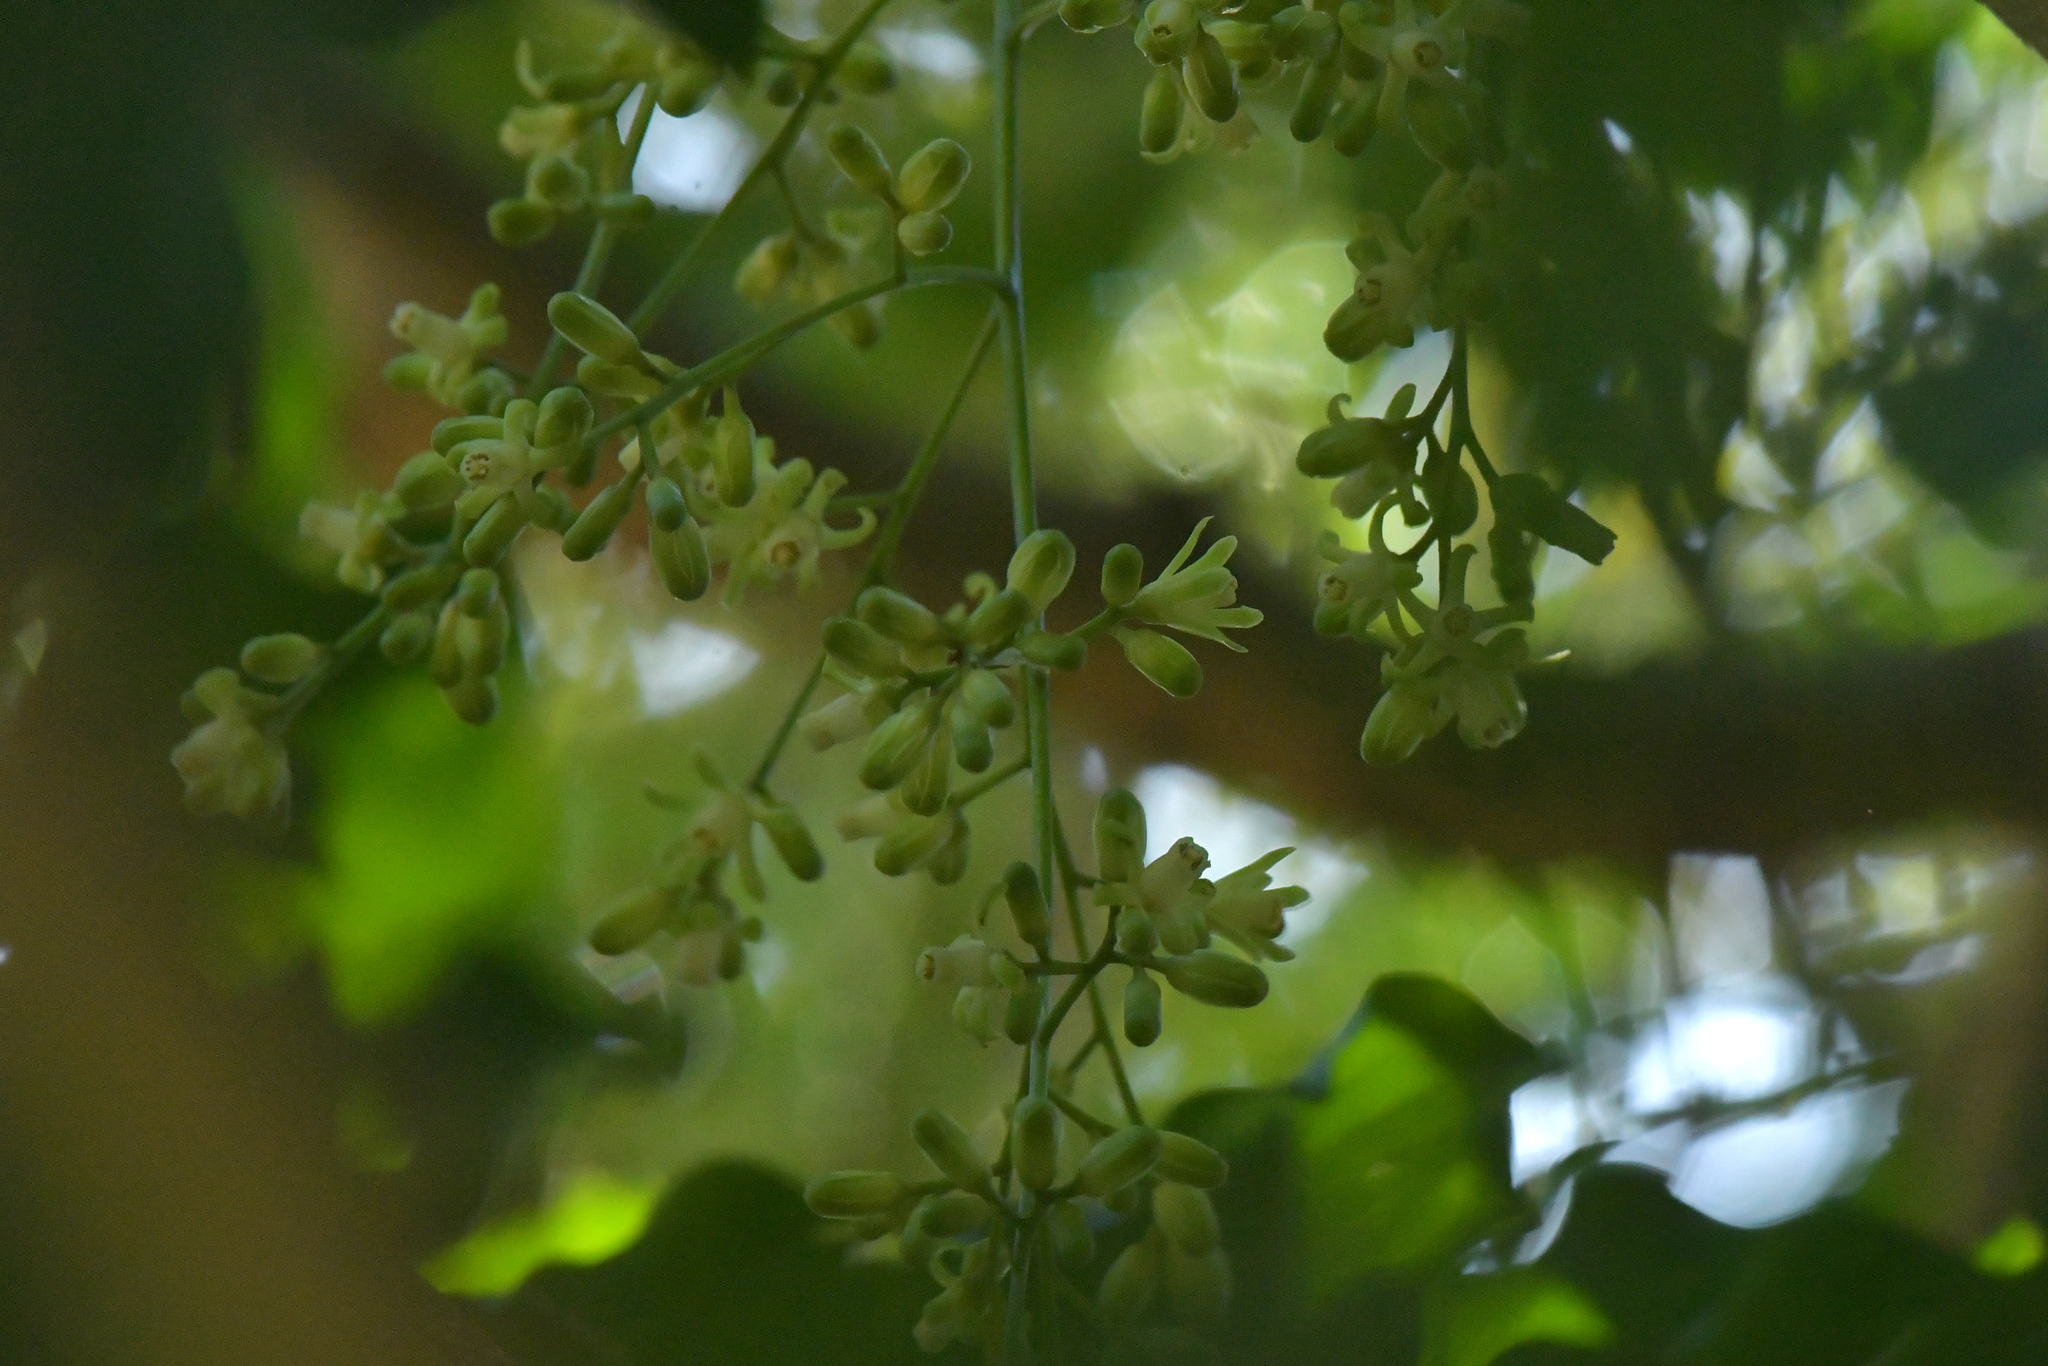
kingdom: Plantae
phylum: Tracheophyta
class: Magnoliopsida
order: Sapindales
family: Meliaceae
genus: Didymocheton
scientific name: Didymocheton spectabilis
